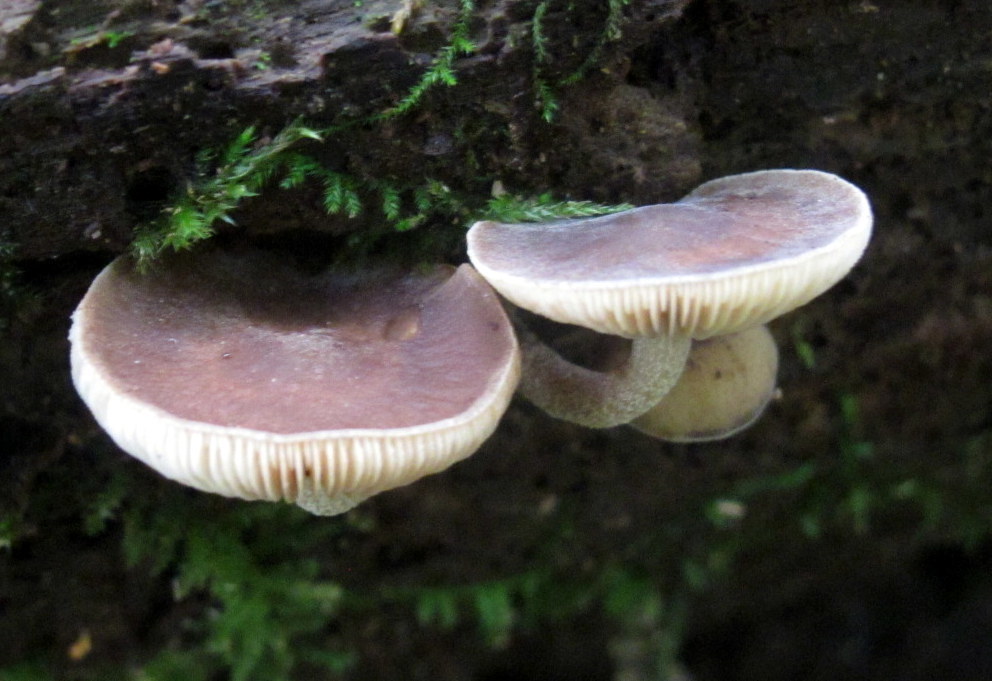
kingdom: Fungi
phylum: Basidiomycota
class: Agaricomycetes
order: Agaricales
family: Strophariaceae
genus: Agrocybe
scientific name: Agrocybe firma
